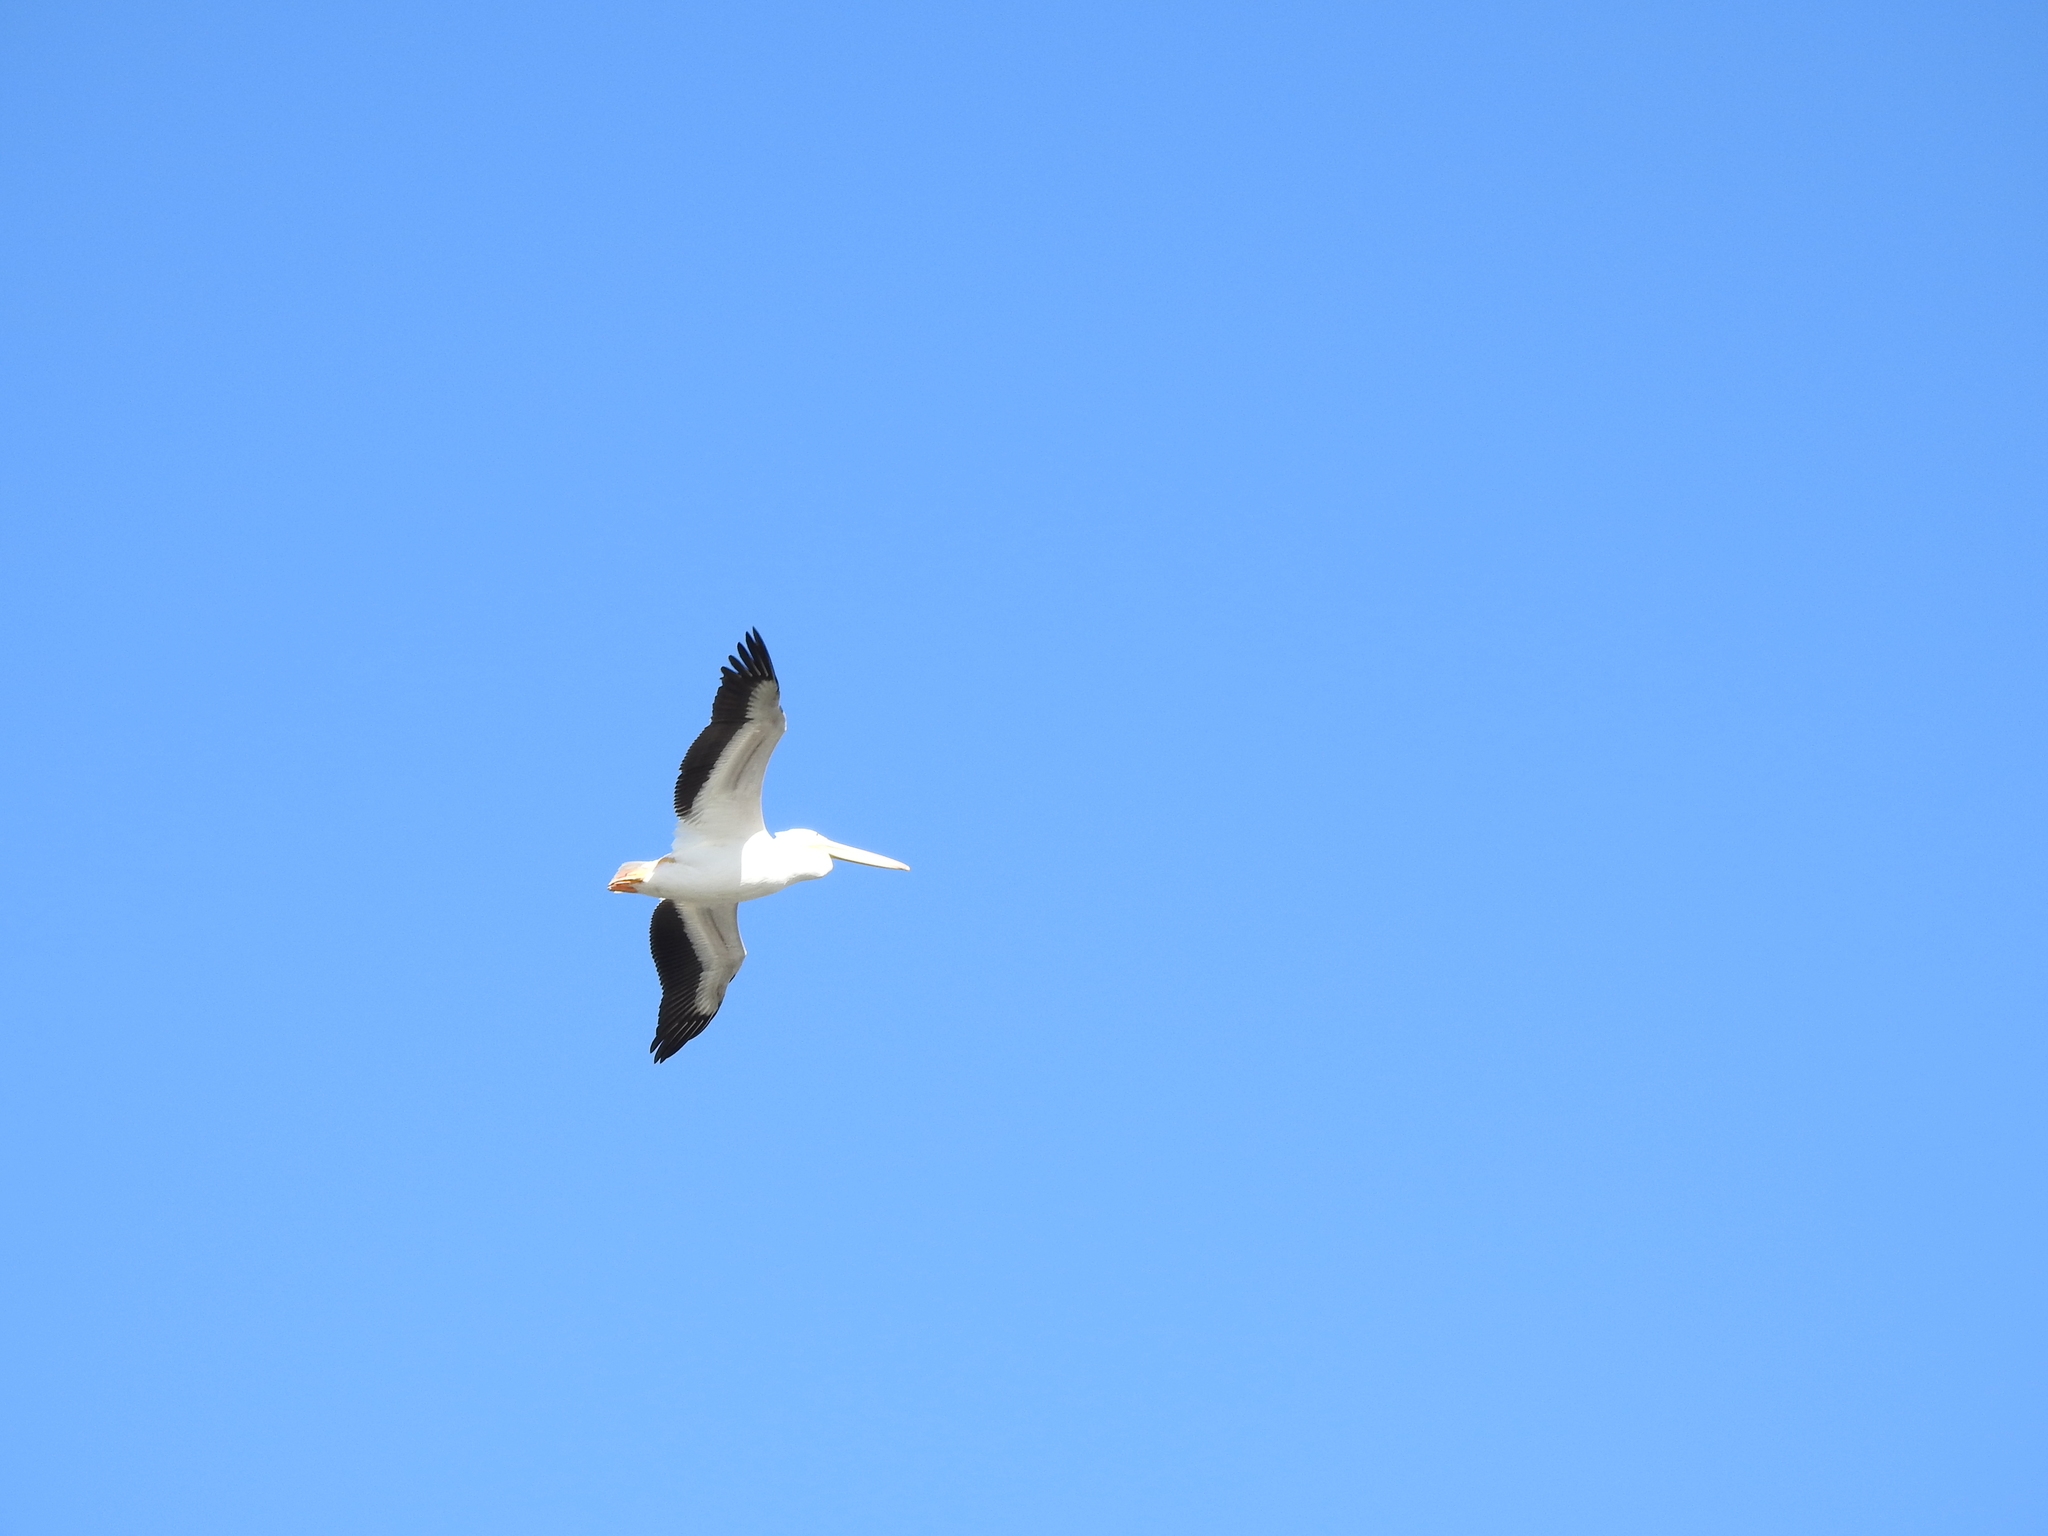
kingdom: Animalia
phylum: Chordata
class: Aves
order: Pelecaniformes
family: Pelecanidae
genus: Pelecanus
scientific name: Pelecanus erythrorhynchos
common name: American white pelican
